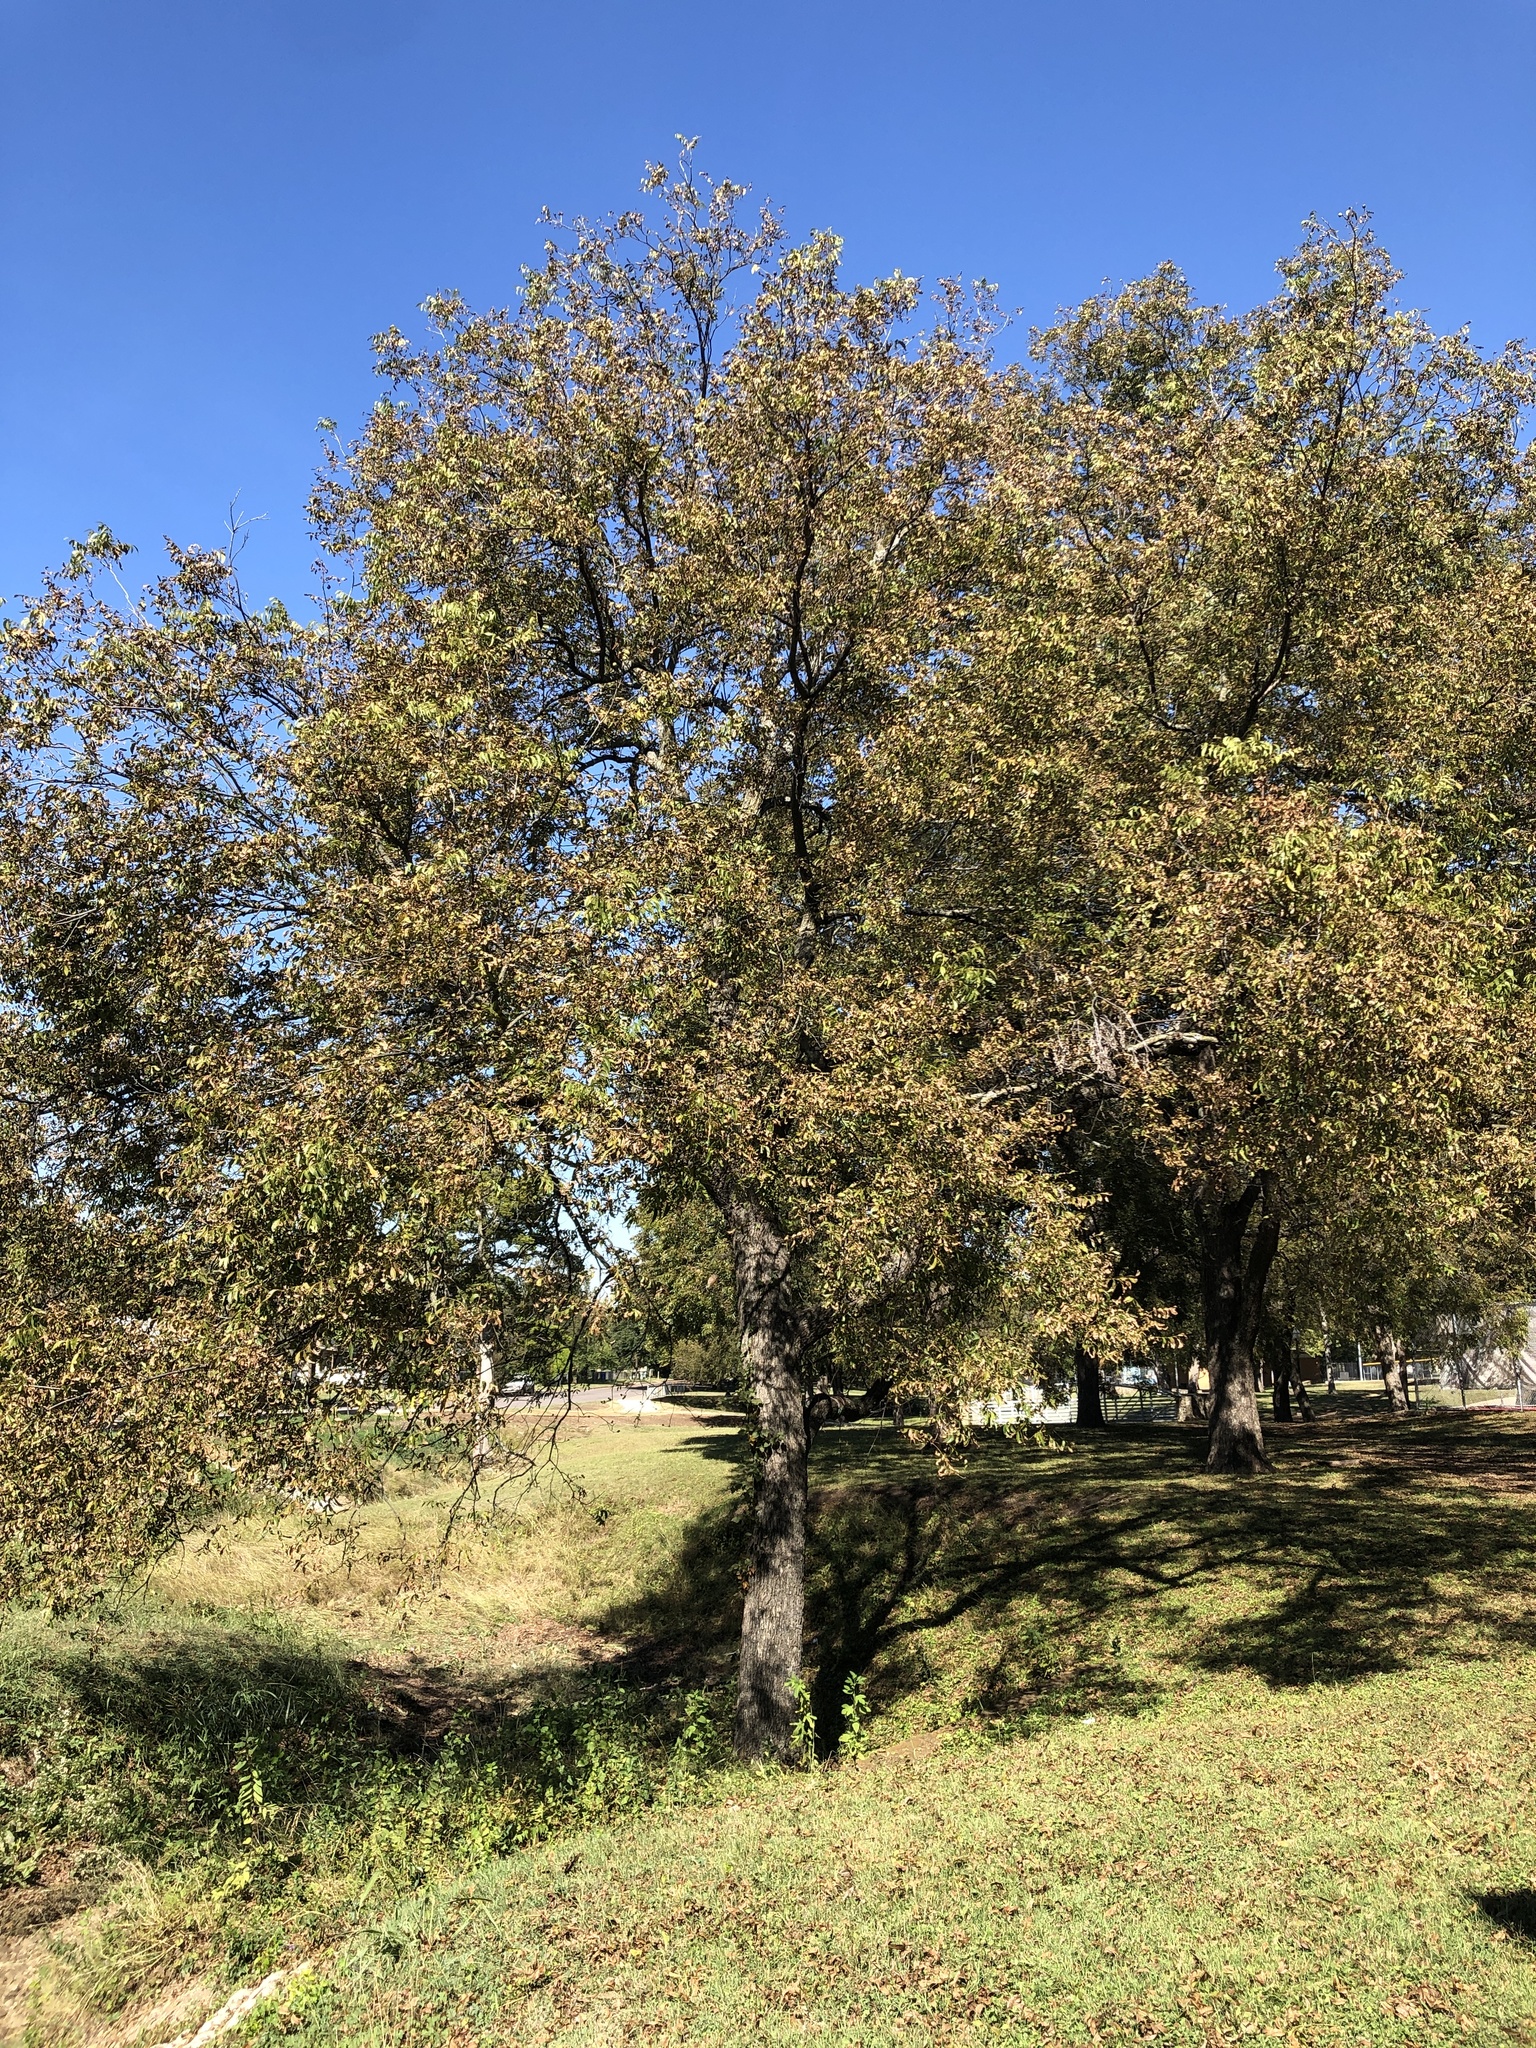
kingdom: Plantae
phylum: Tracheophyta
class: Magnoliopsida
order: Fagales
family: Juglandaceae
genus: Carya
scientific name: Carya illinoinensis
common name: Pecan
